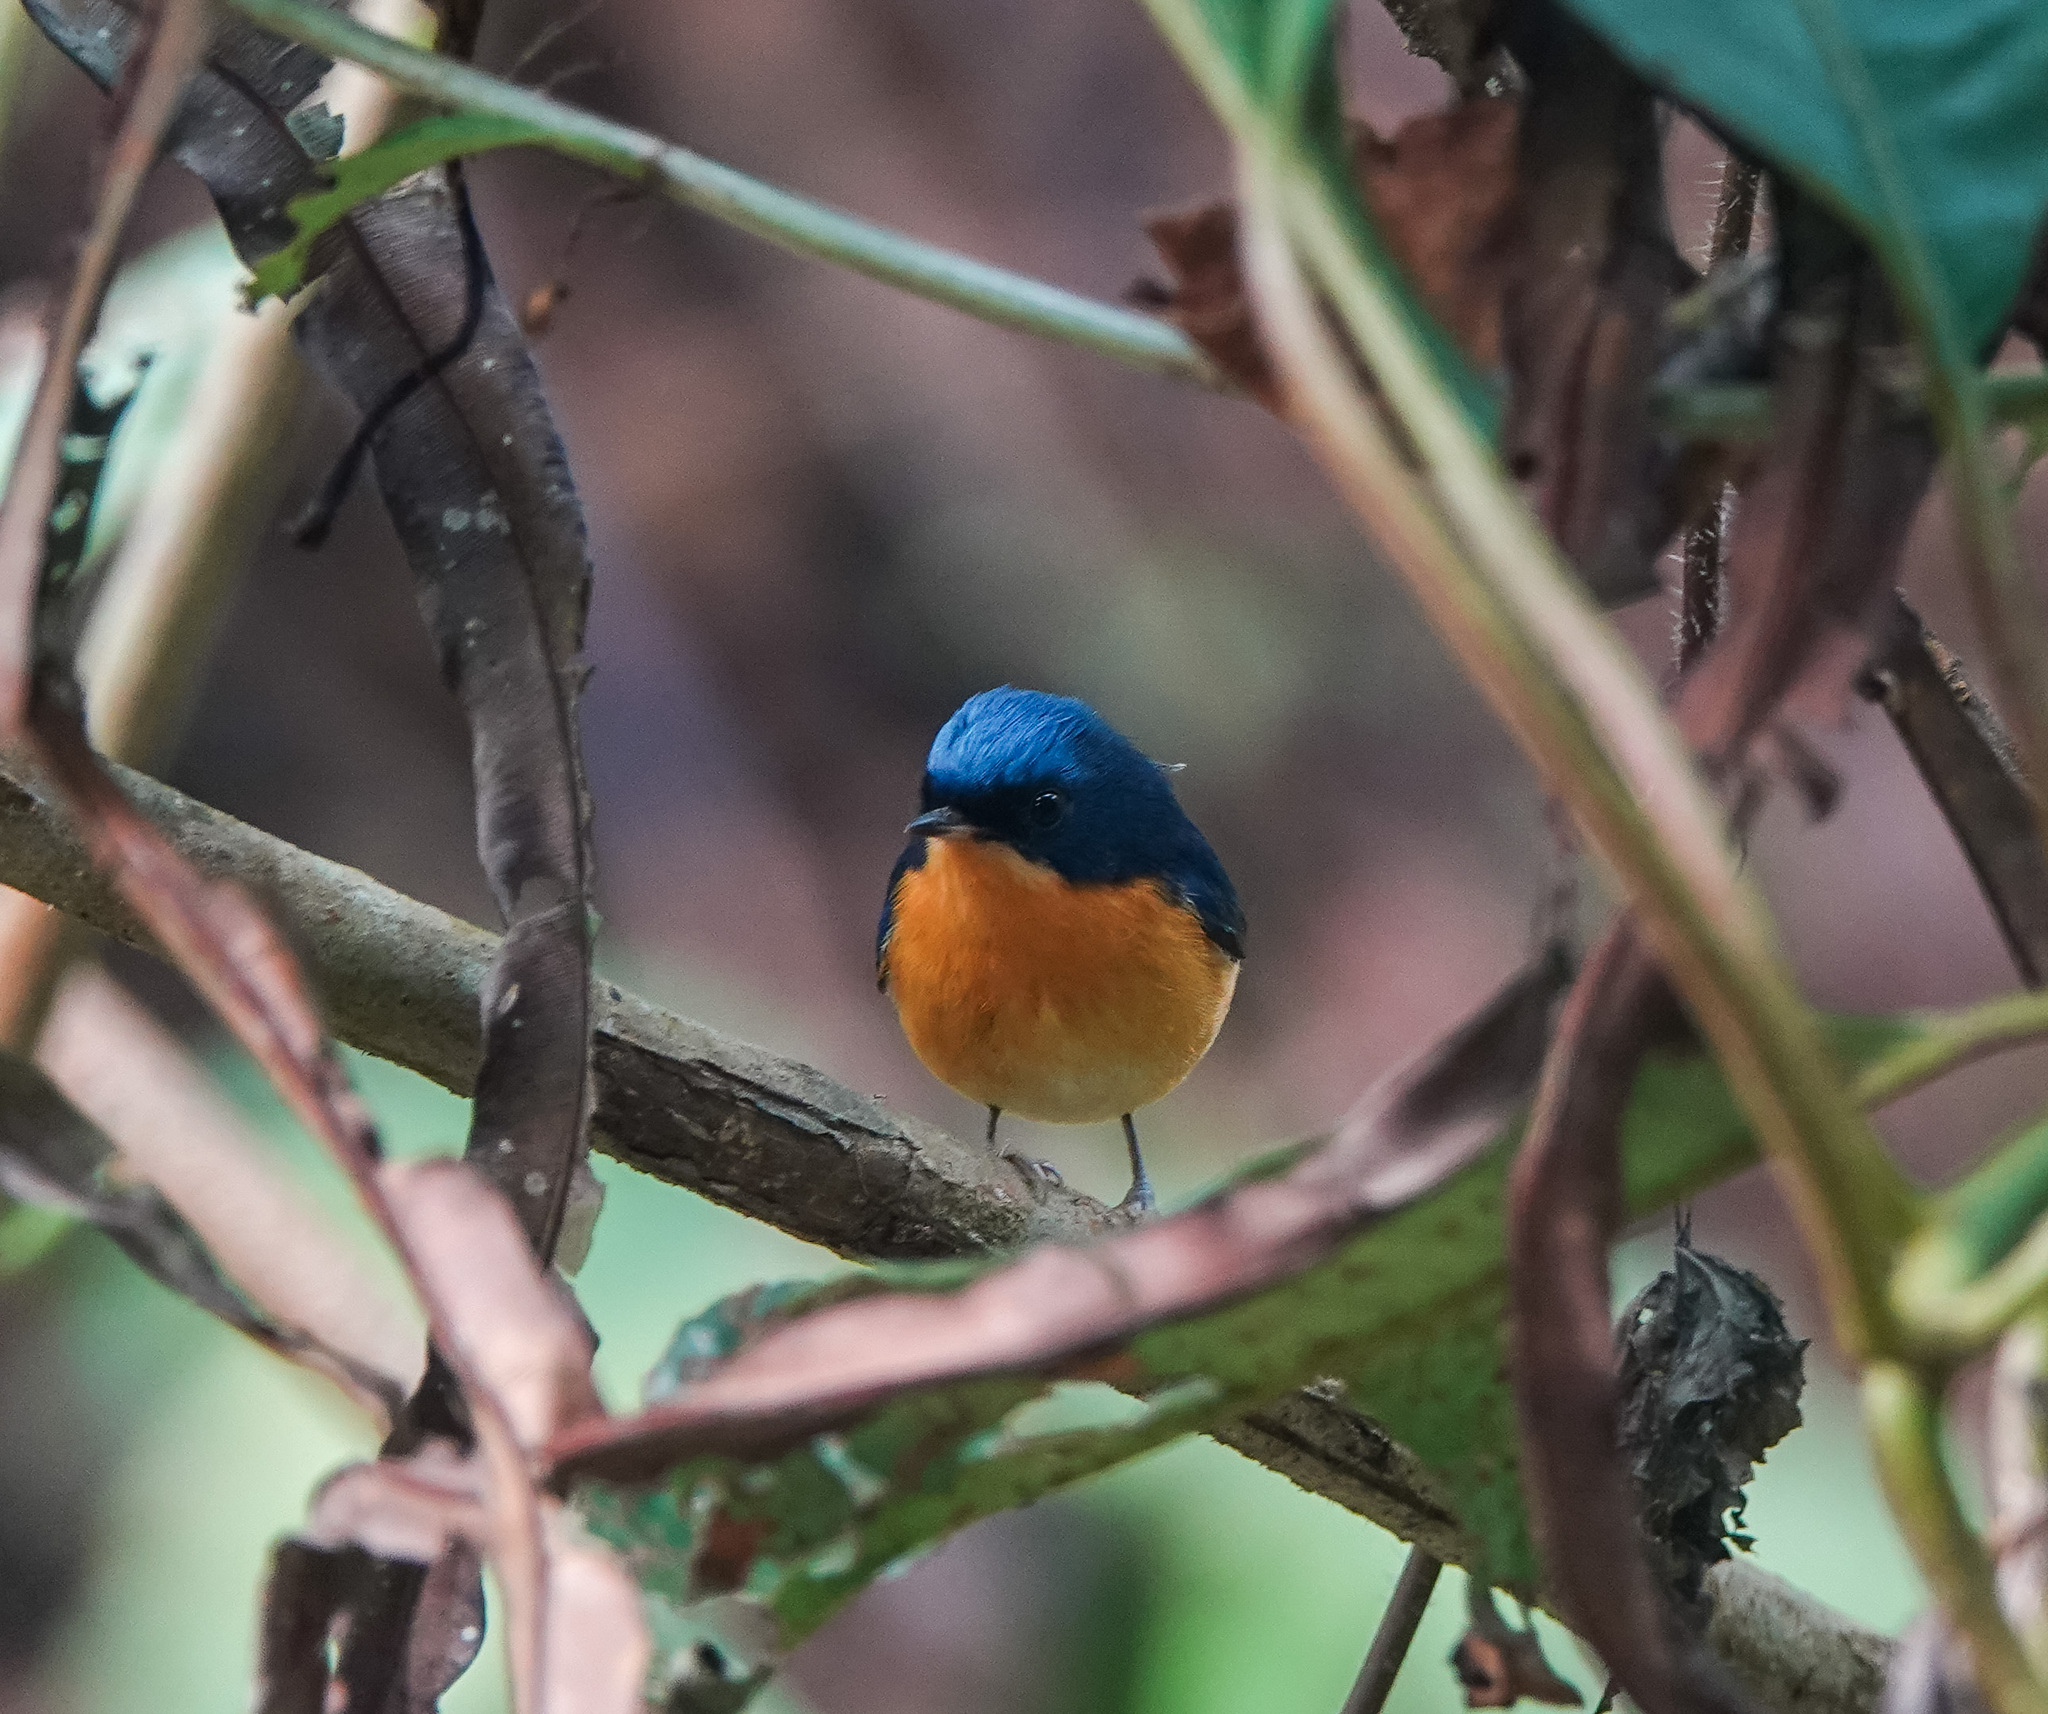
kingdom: Animalia
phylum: Chordata
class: Aves
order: Passeriformes
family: Muscicapidae
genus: Ficedula
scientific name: Ficedula hodgsoni
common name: Pygmy flycatcher
